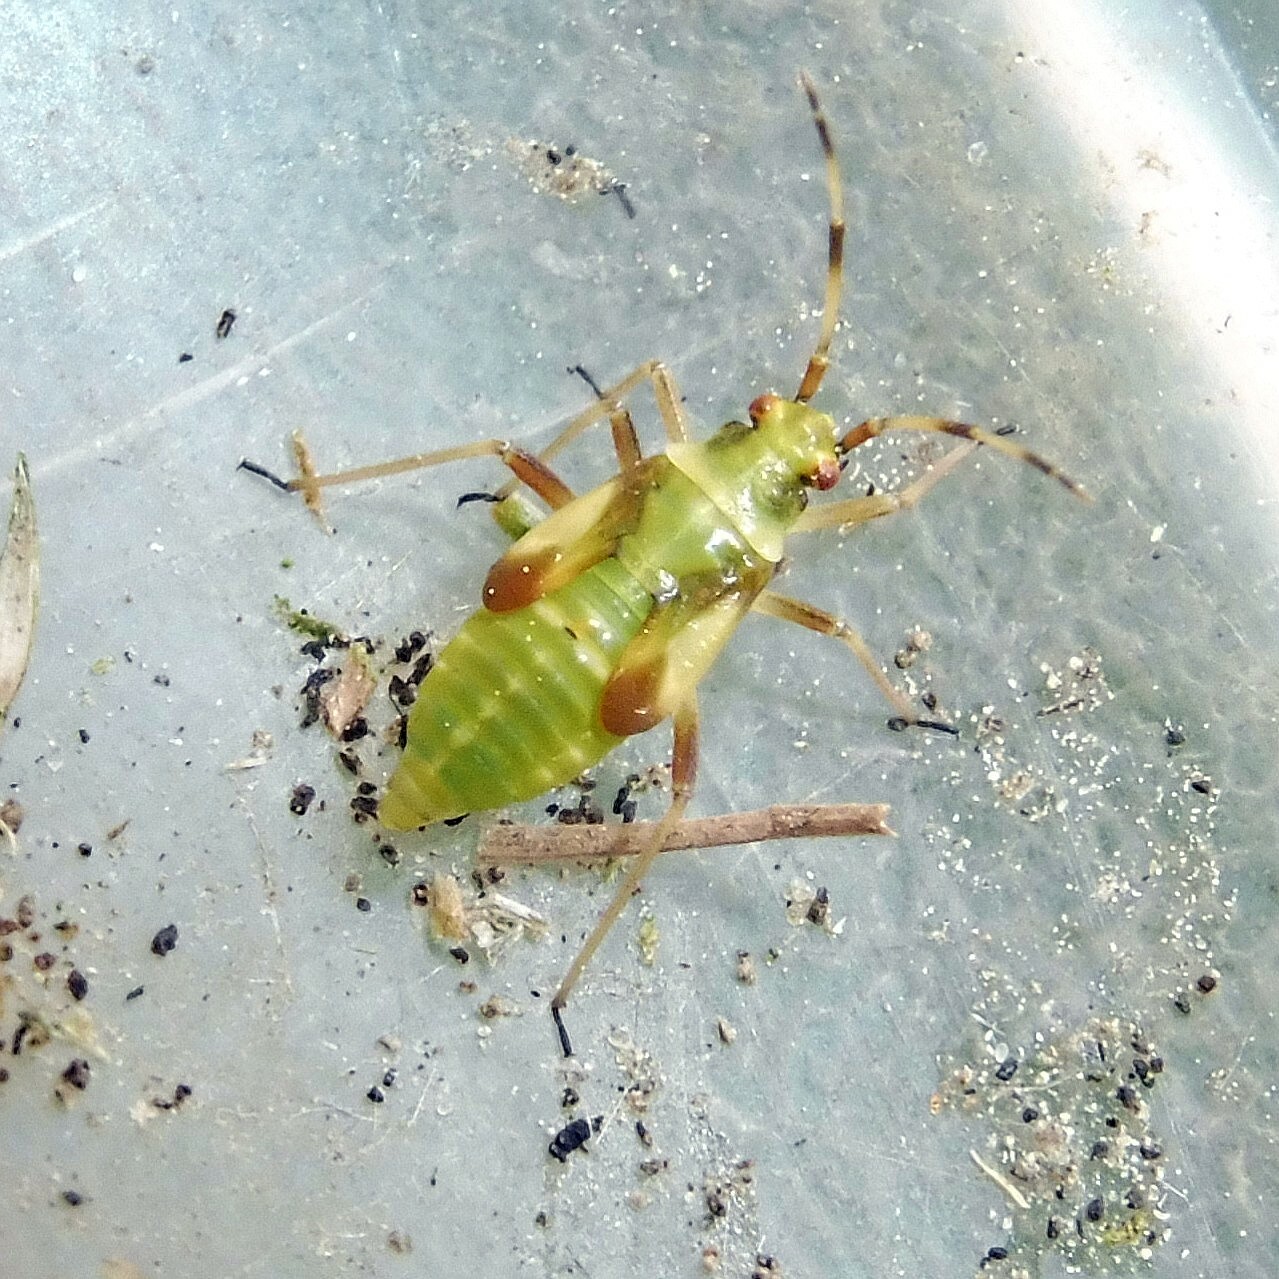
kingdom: Animalia
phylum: Arthropoda
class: Insecta
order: Hemiptera
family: Miridae
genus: Dryophilocoris
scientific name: Dryophilocoris flavoquadrimaculatus
